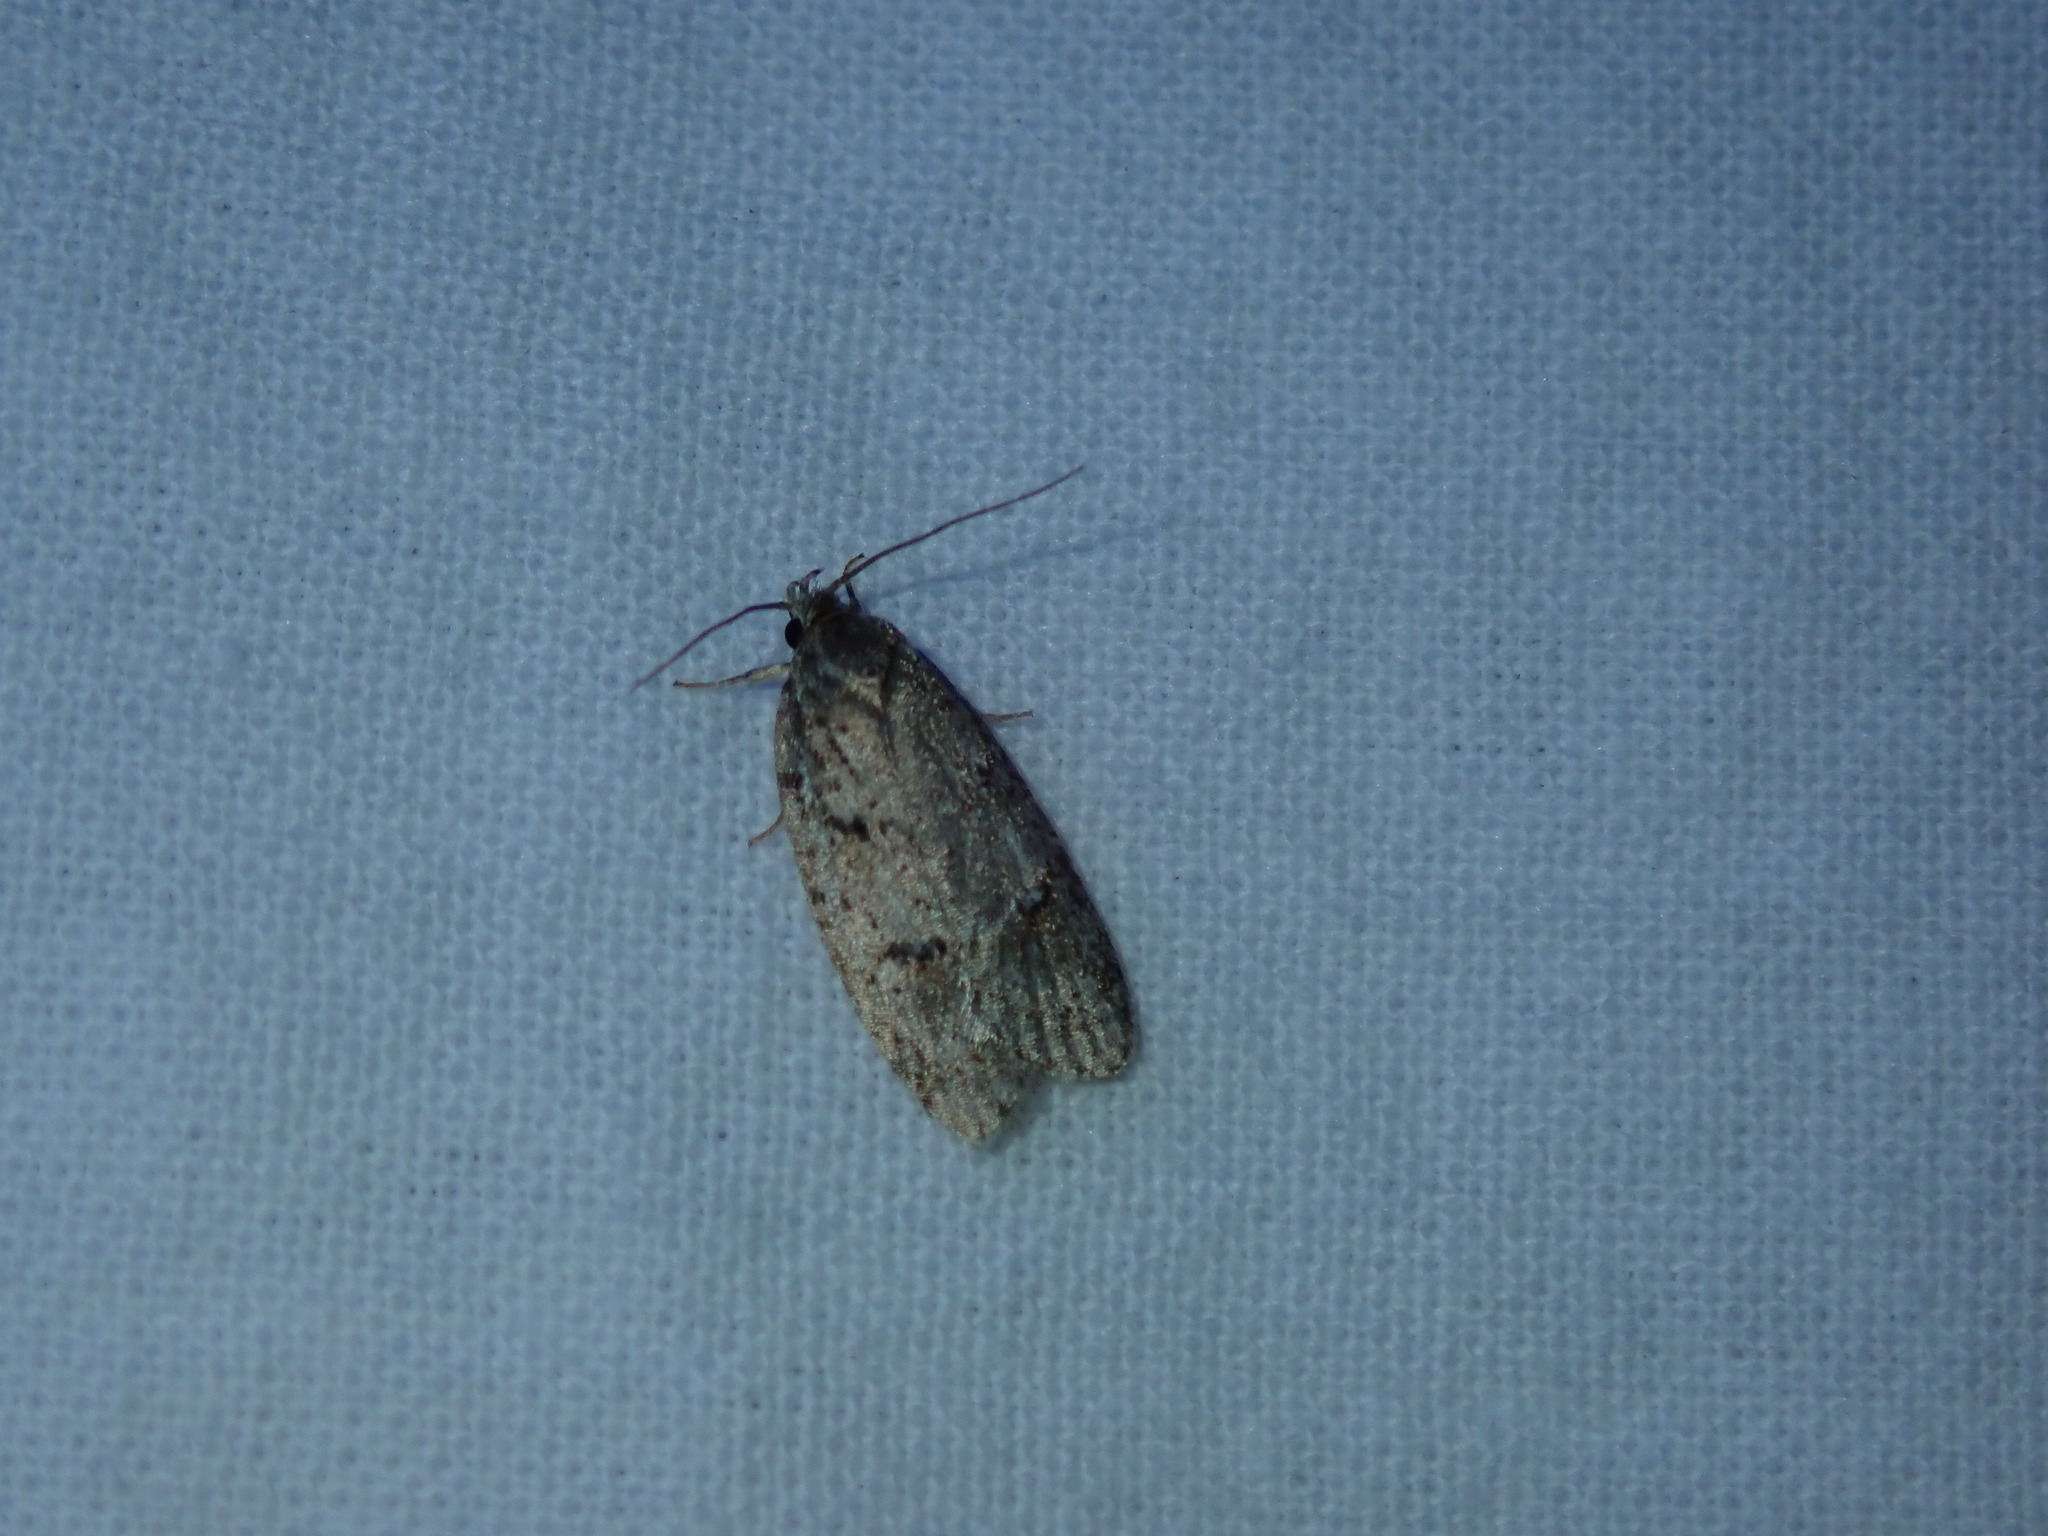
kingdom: Animalia
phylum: Arthropoda
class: Insecta
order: Lepidoptera
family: Depressariidae
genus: Bibarrambla
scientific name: Bibarrambla allenella
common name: Bog bibarrambla moth
